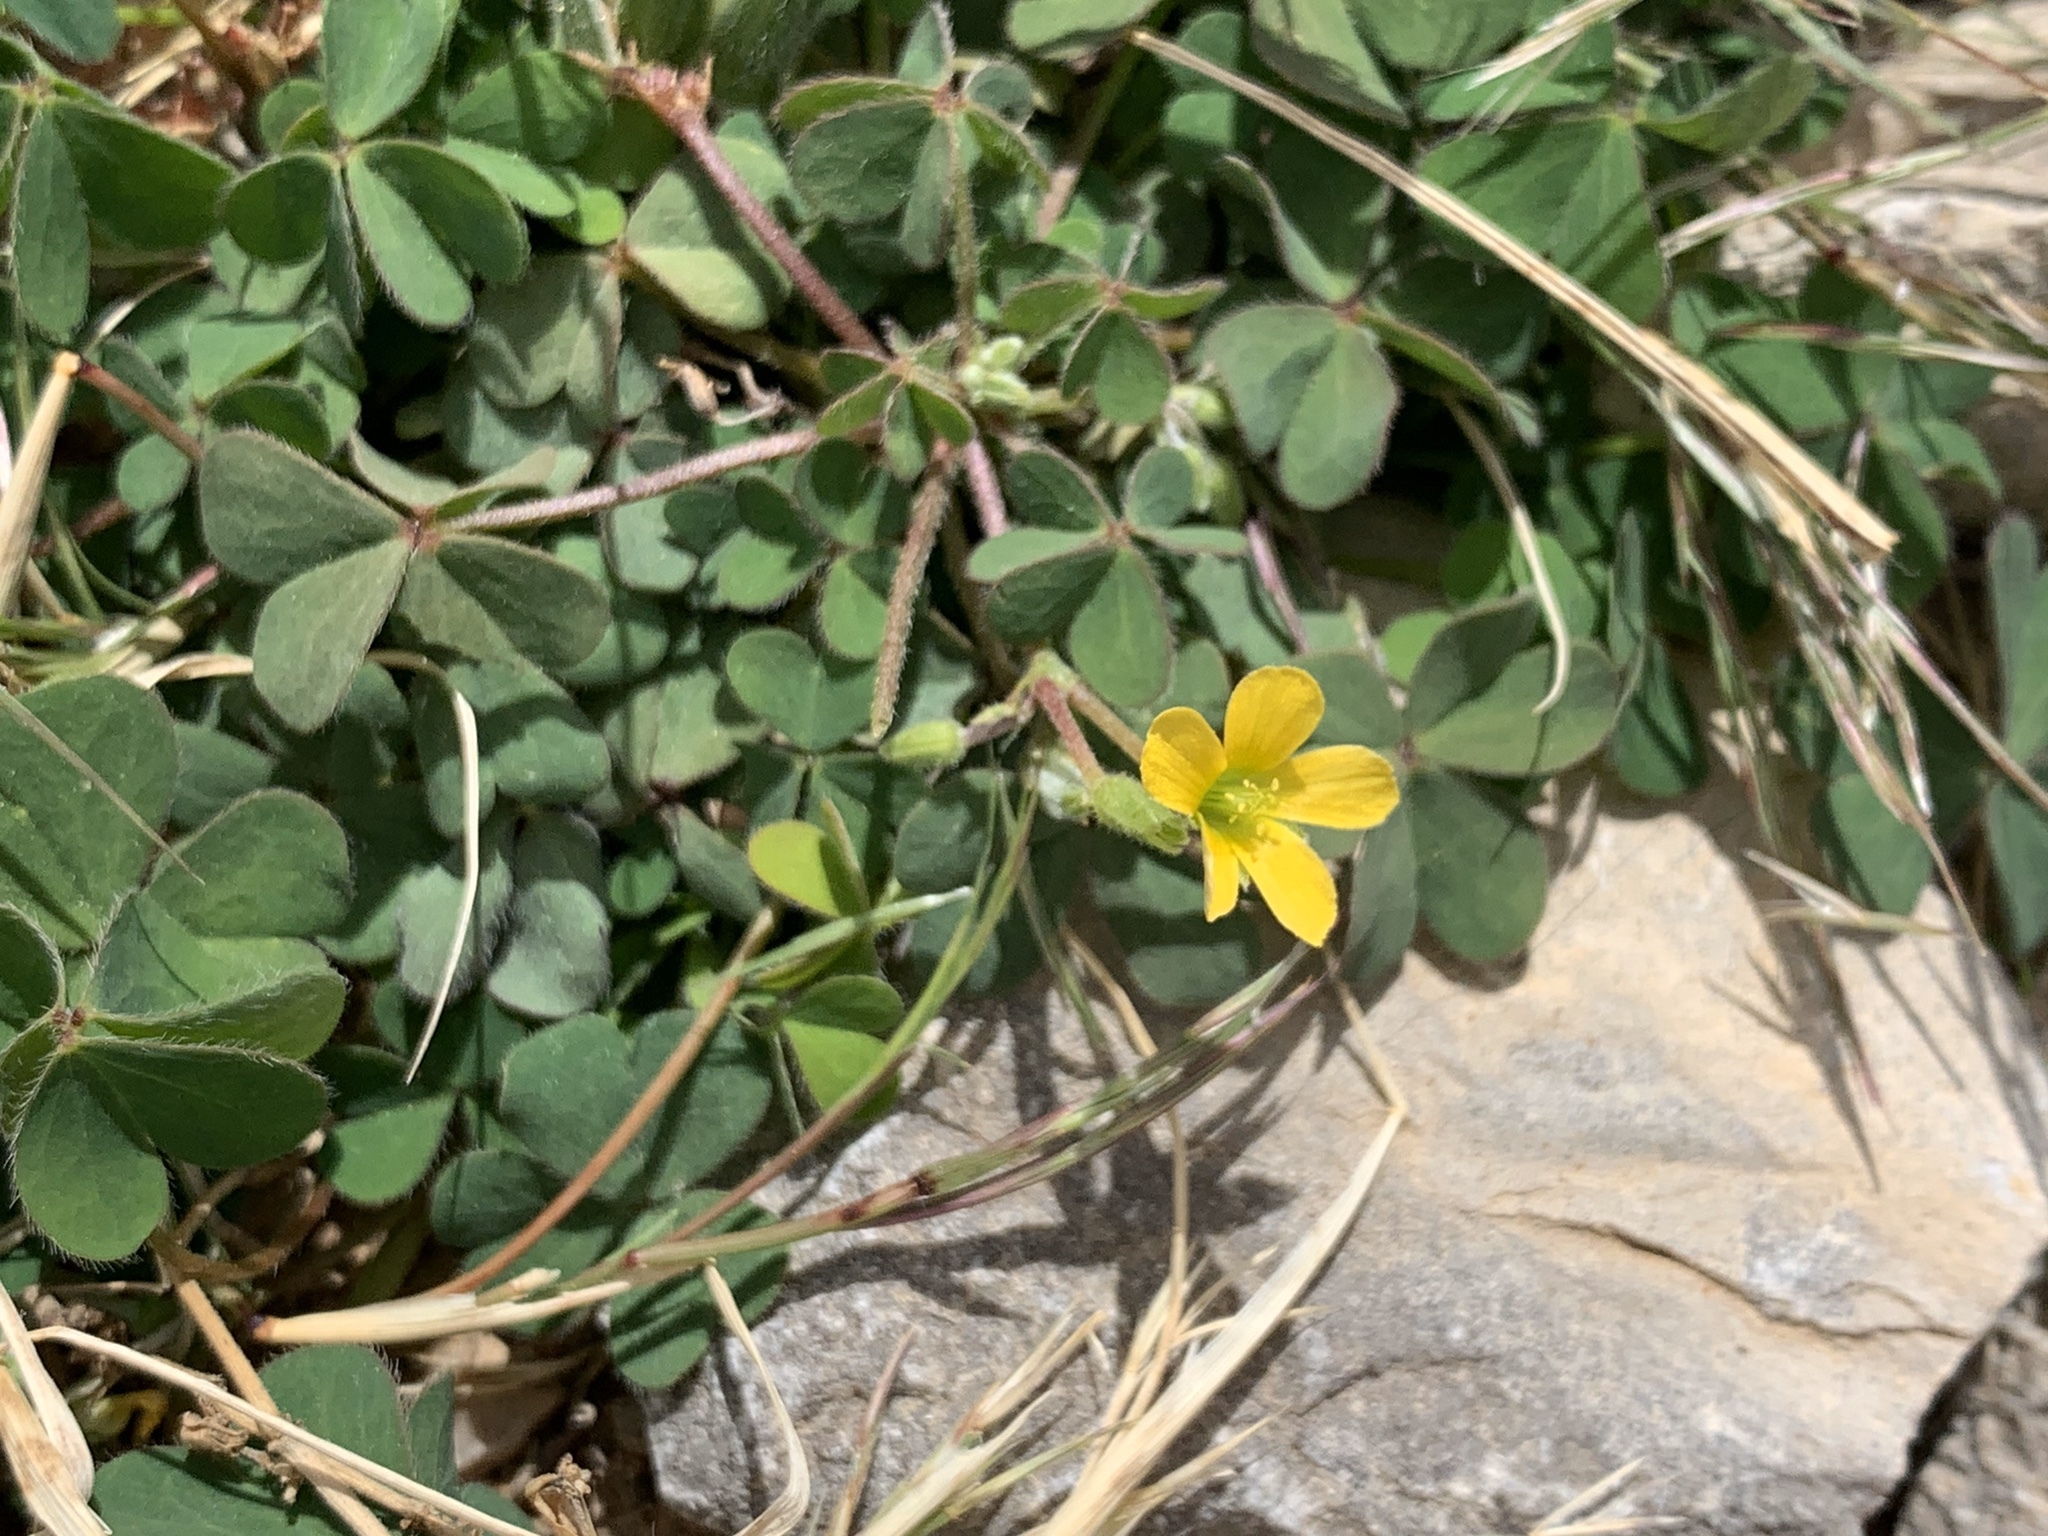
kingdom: Plantae
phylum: Tracheophyta
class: Magnoliopsida
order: Oxalidales
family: Oxalidaceae
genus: Oxalis
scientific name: Oxalis corniculata
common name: Procumbent yellow-sorrel
